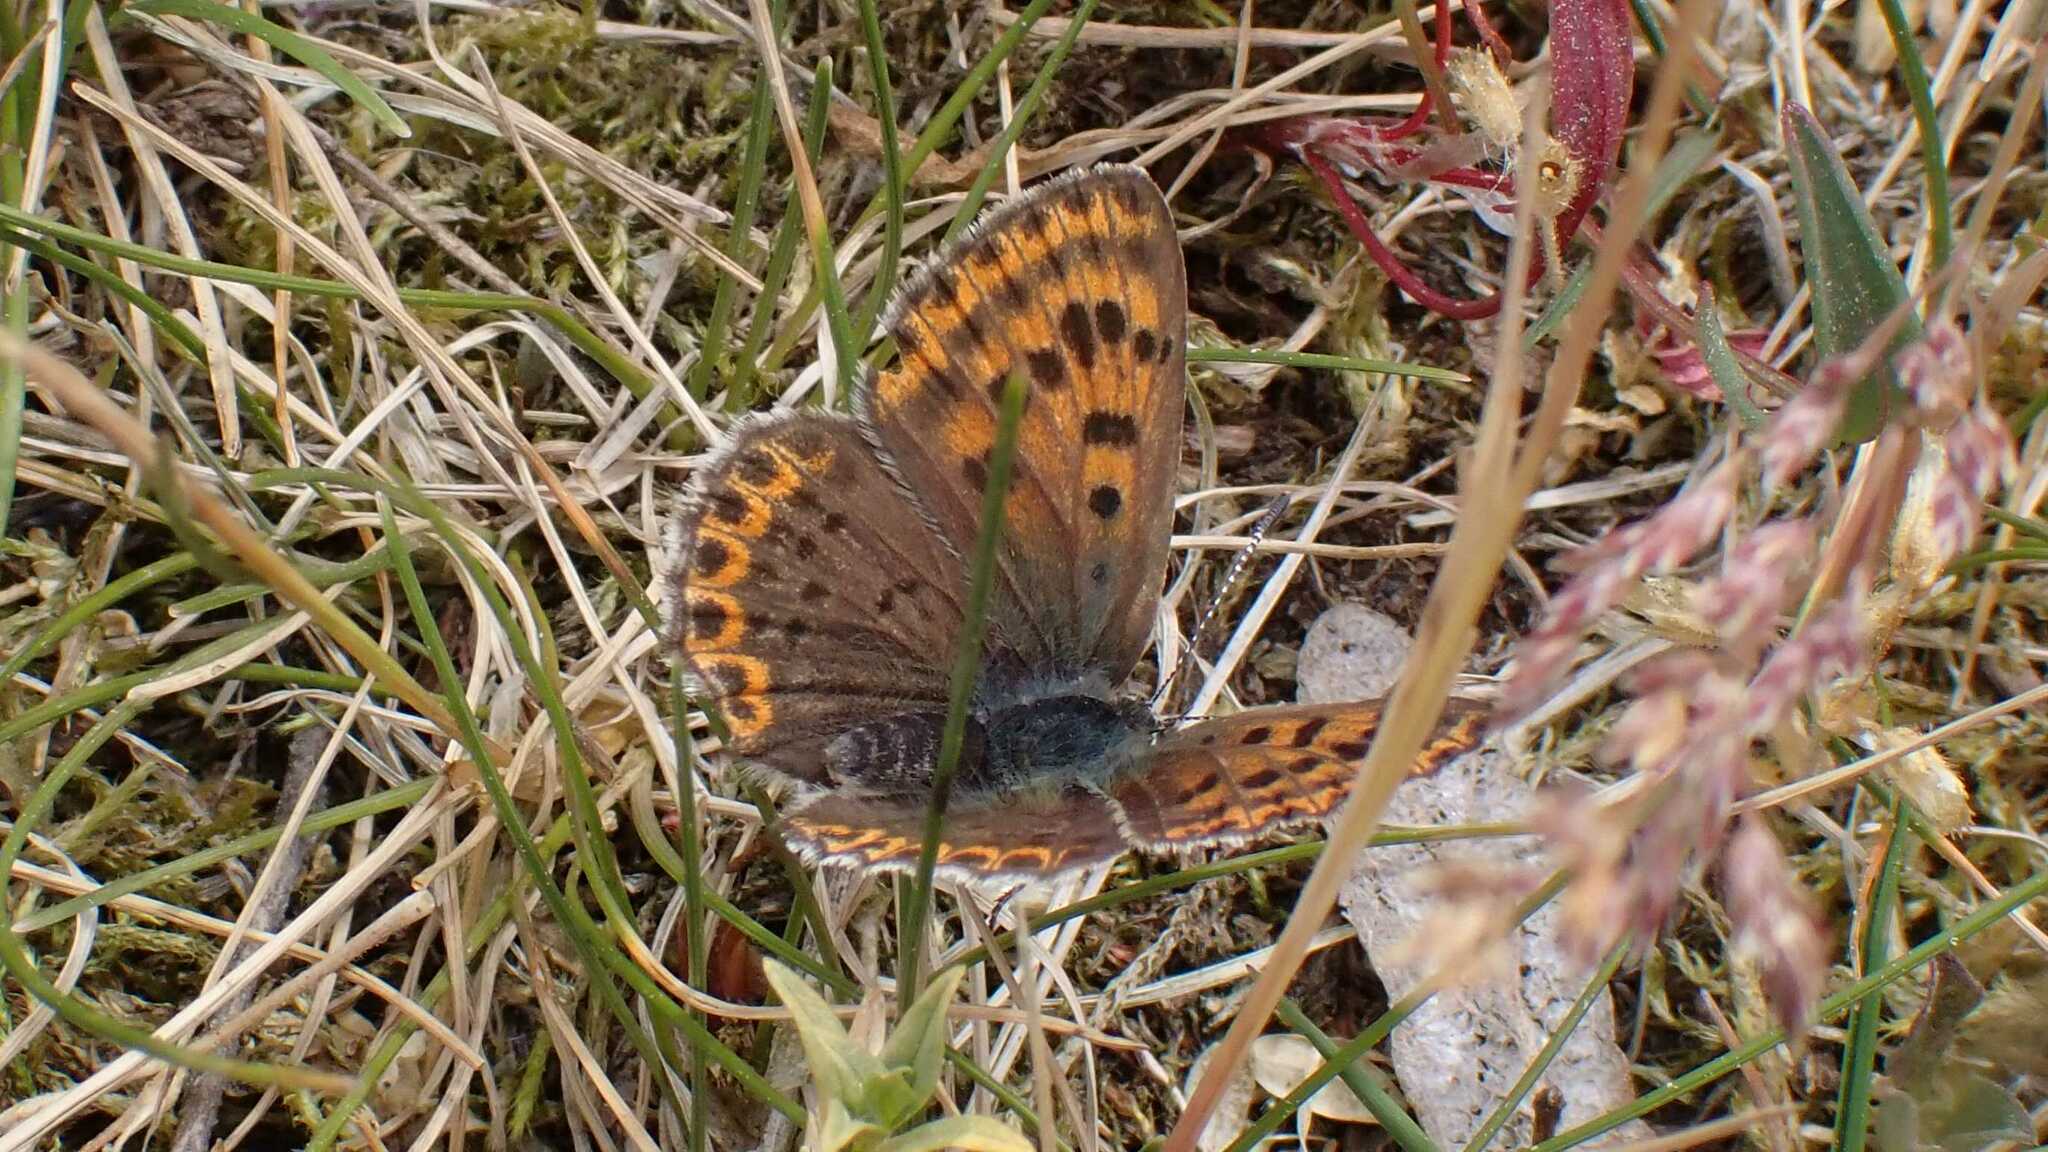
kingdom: Animalia
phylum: Arthropoda
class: Insecta
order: Lepidoptera
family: Lycaenidae
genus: Loweia
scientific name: Loweia tityrus
